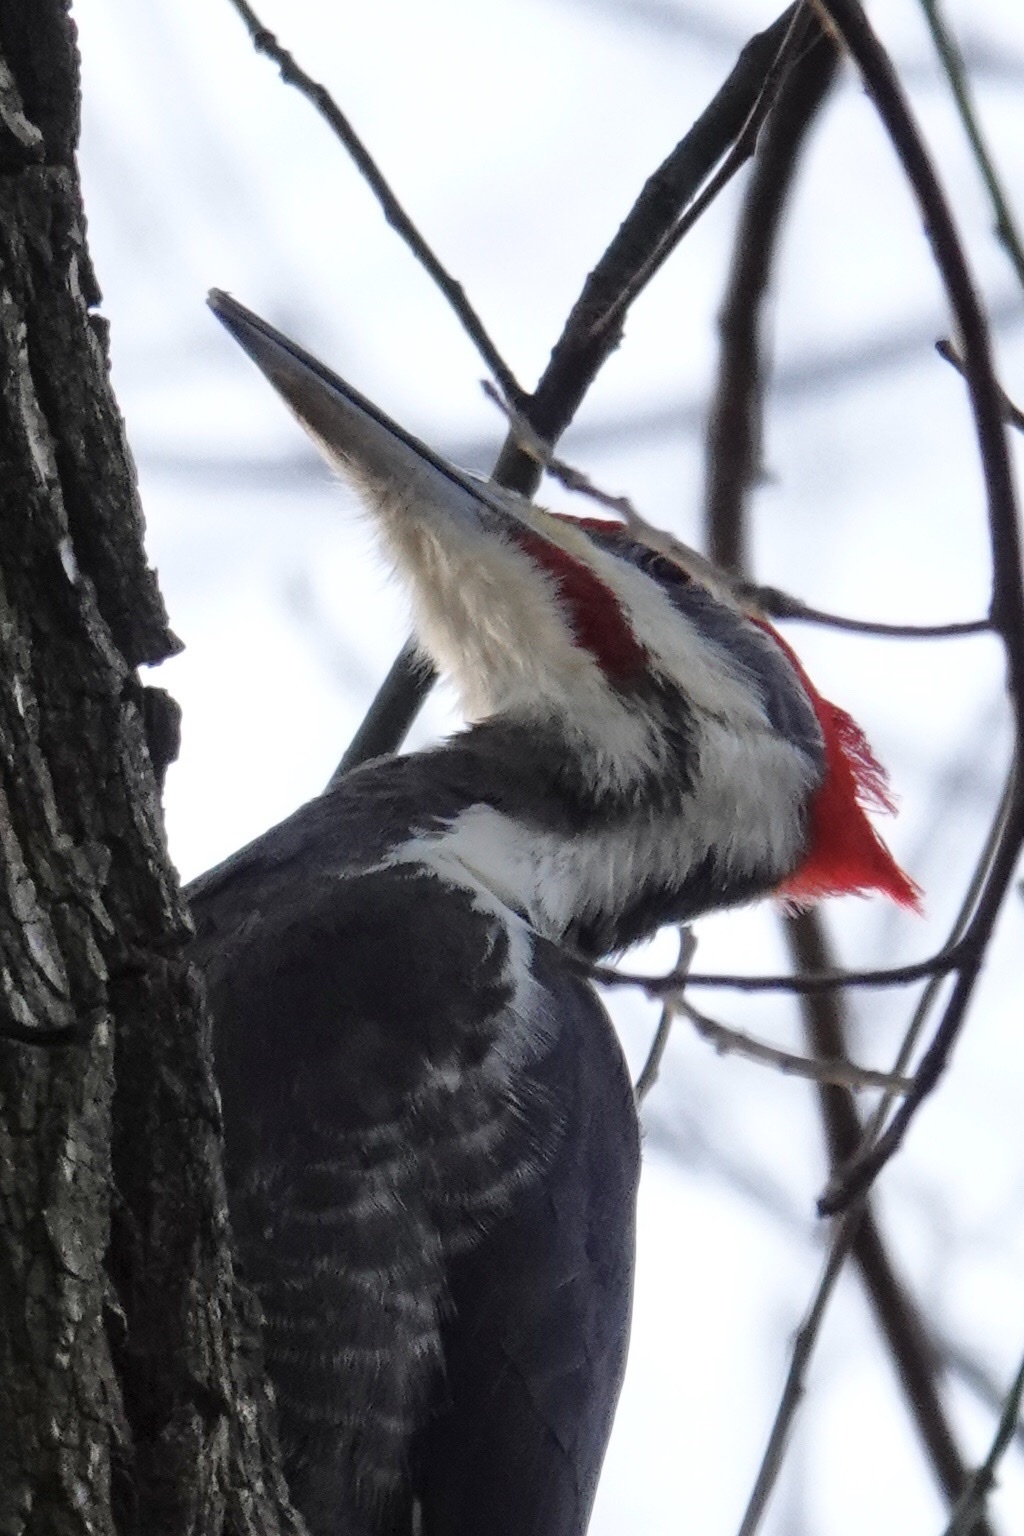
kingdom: Animalia
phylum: Chordata
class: Aves
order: Piciformes
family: Picidae
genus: Dryocopus
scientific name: Dryocopus pileatus
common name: Pileated woodpecker
